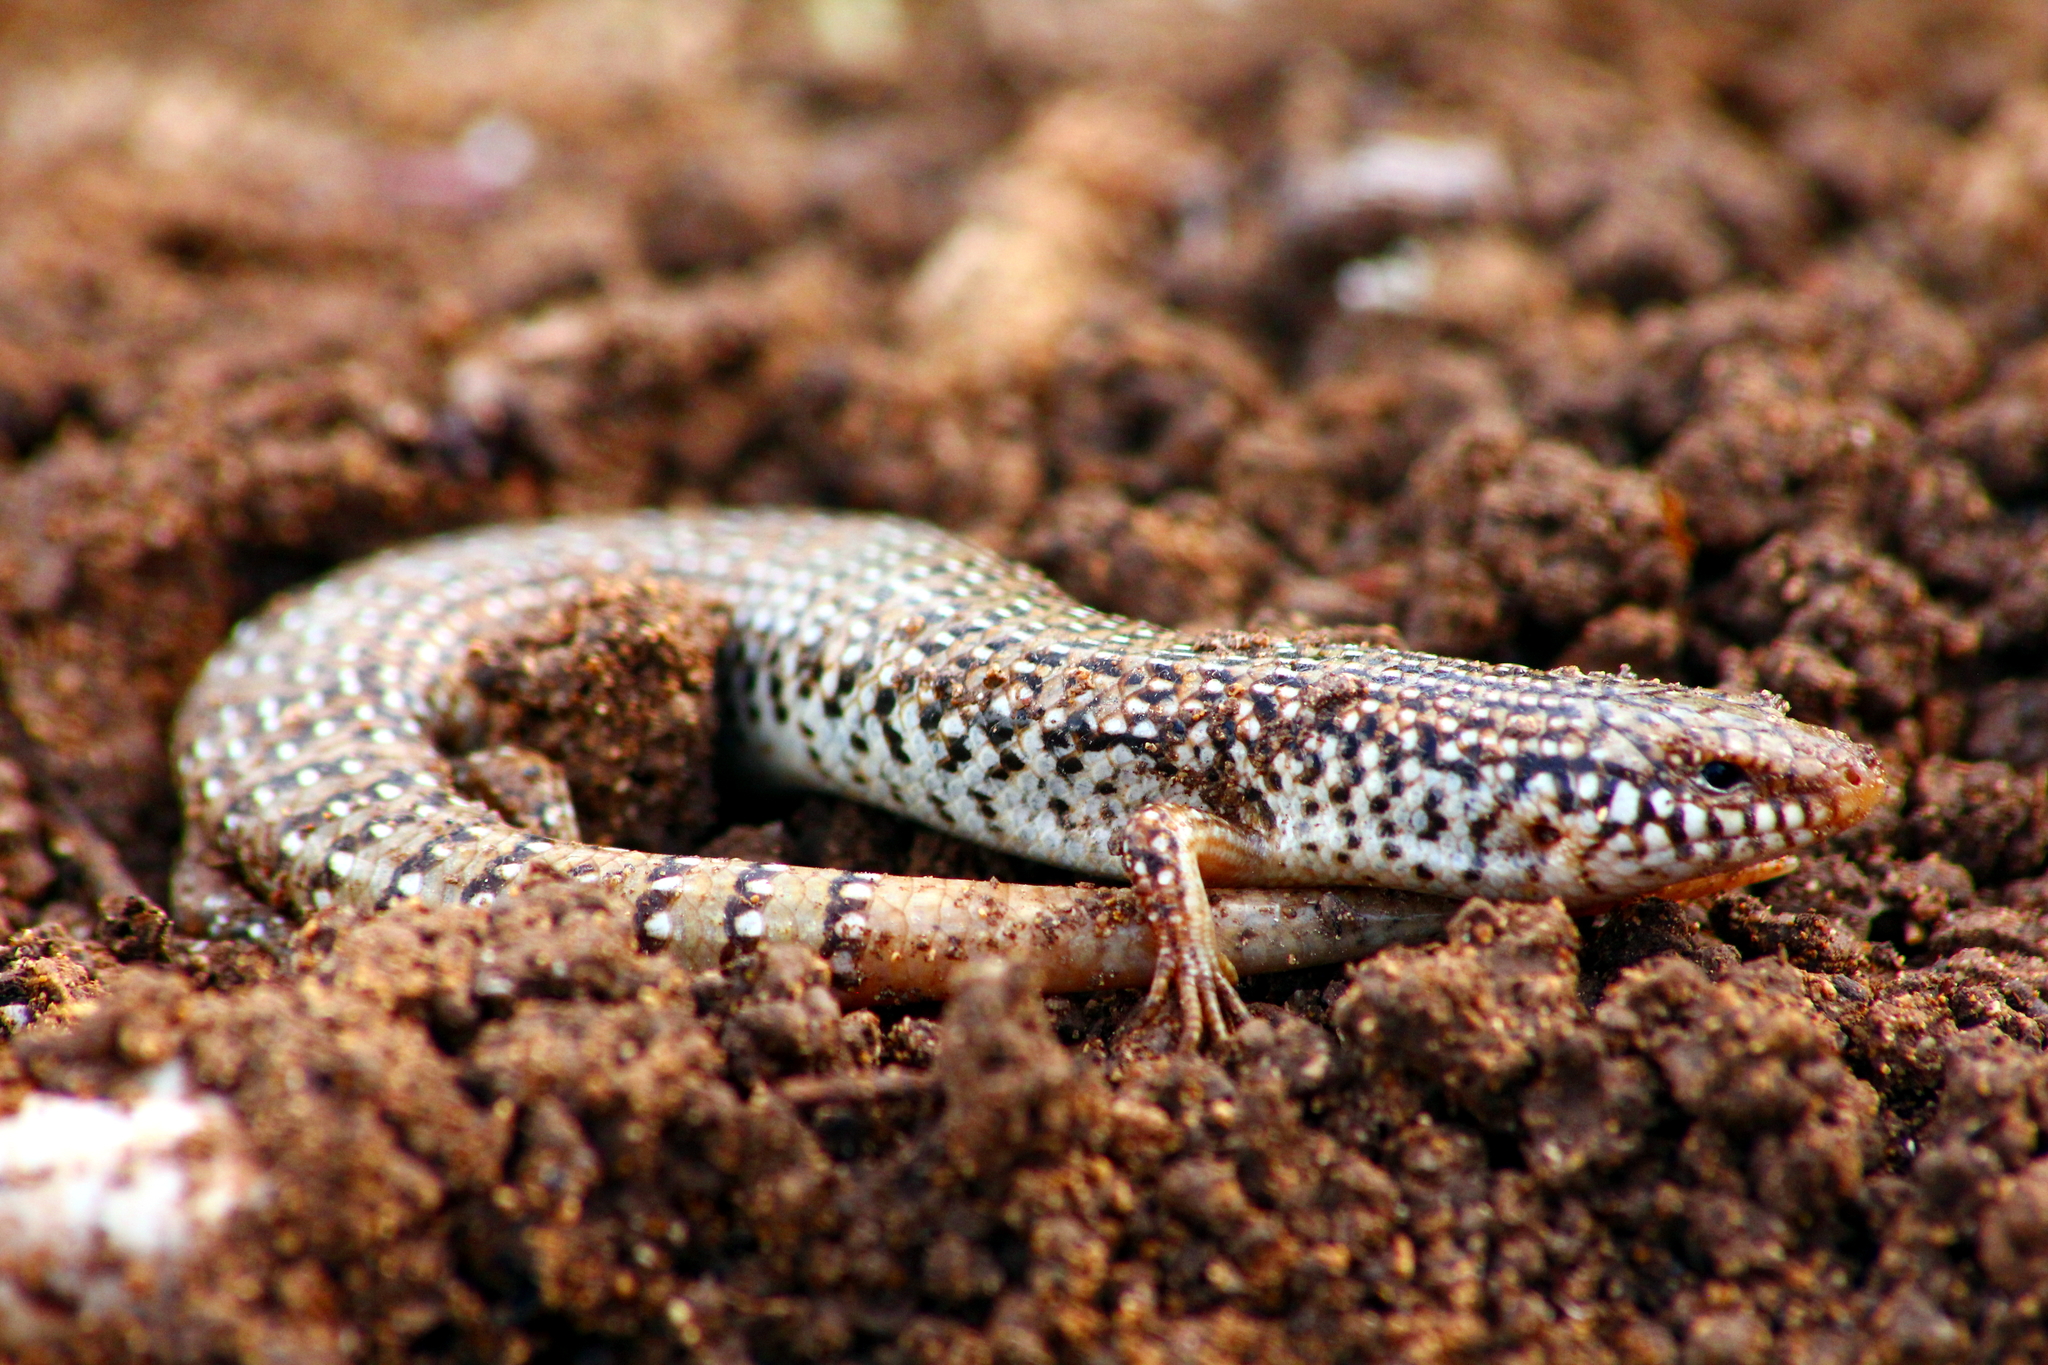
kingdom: Animalia
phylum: Chordata
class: Squamata
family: Scincidae
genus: Chalcides
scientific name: Chalcides ocellatus
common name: Ocellated skink
